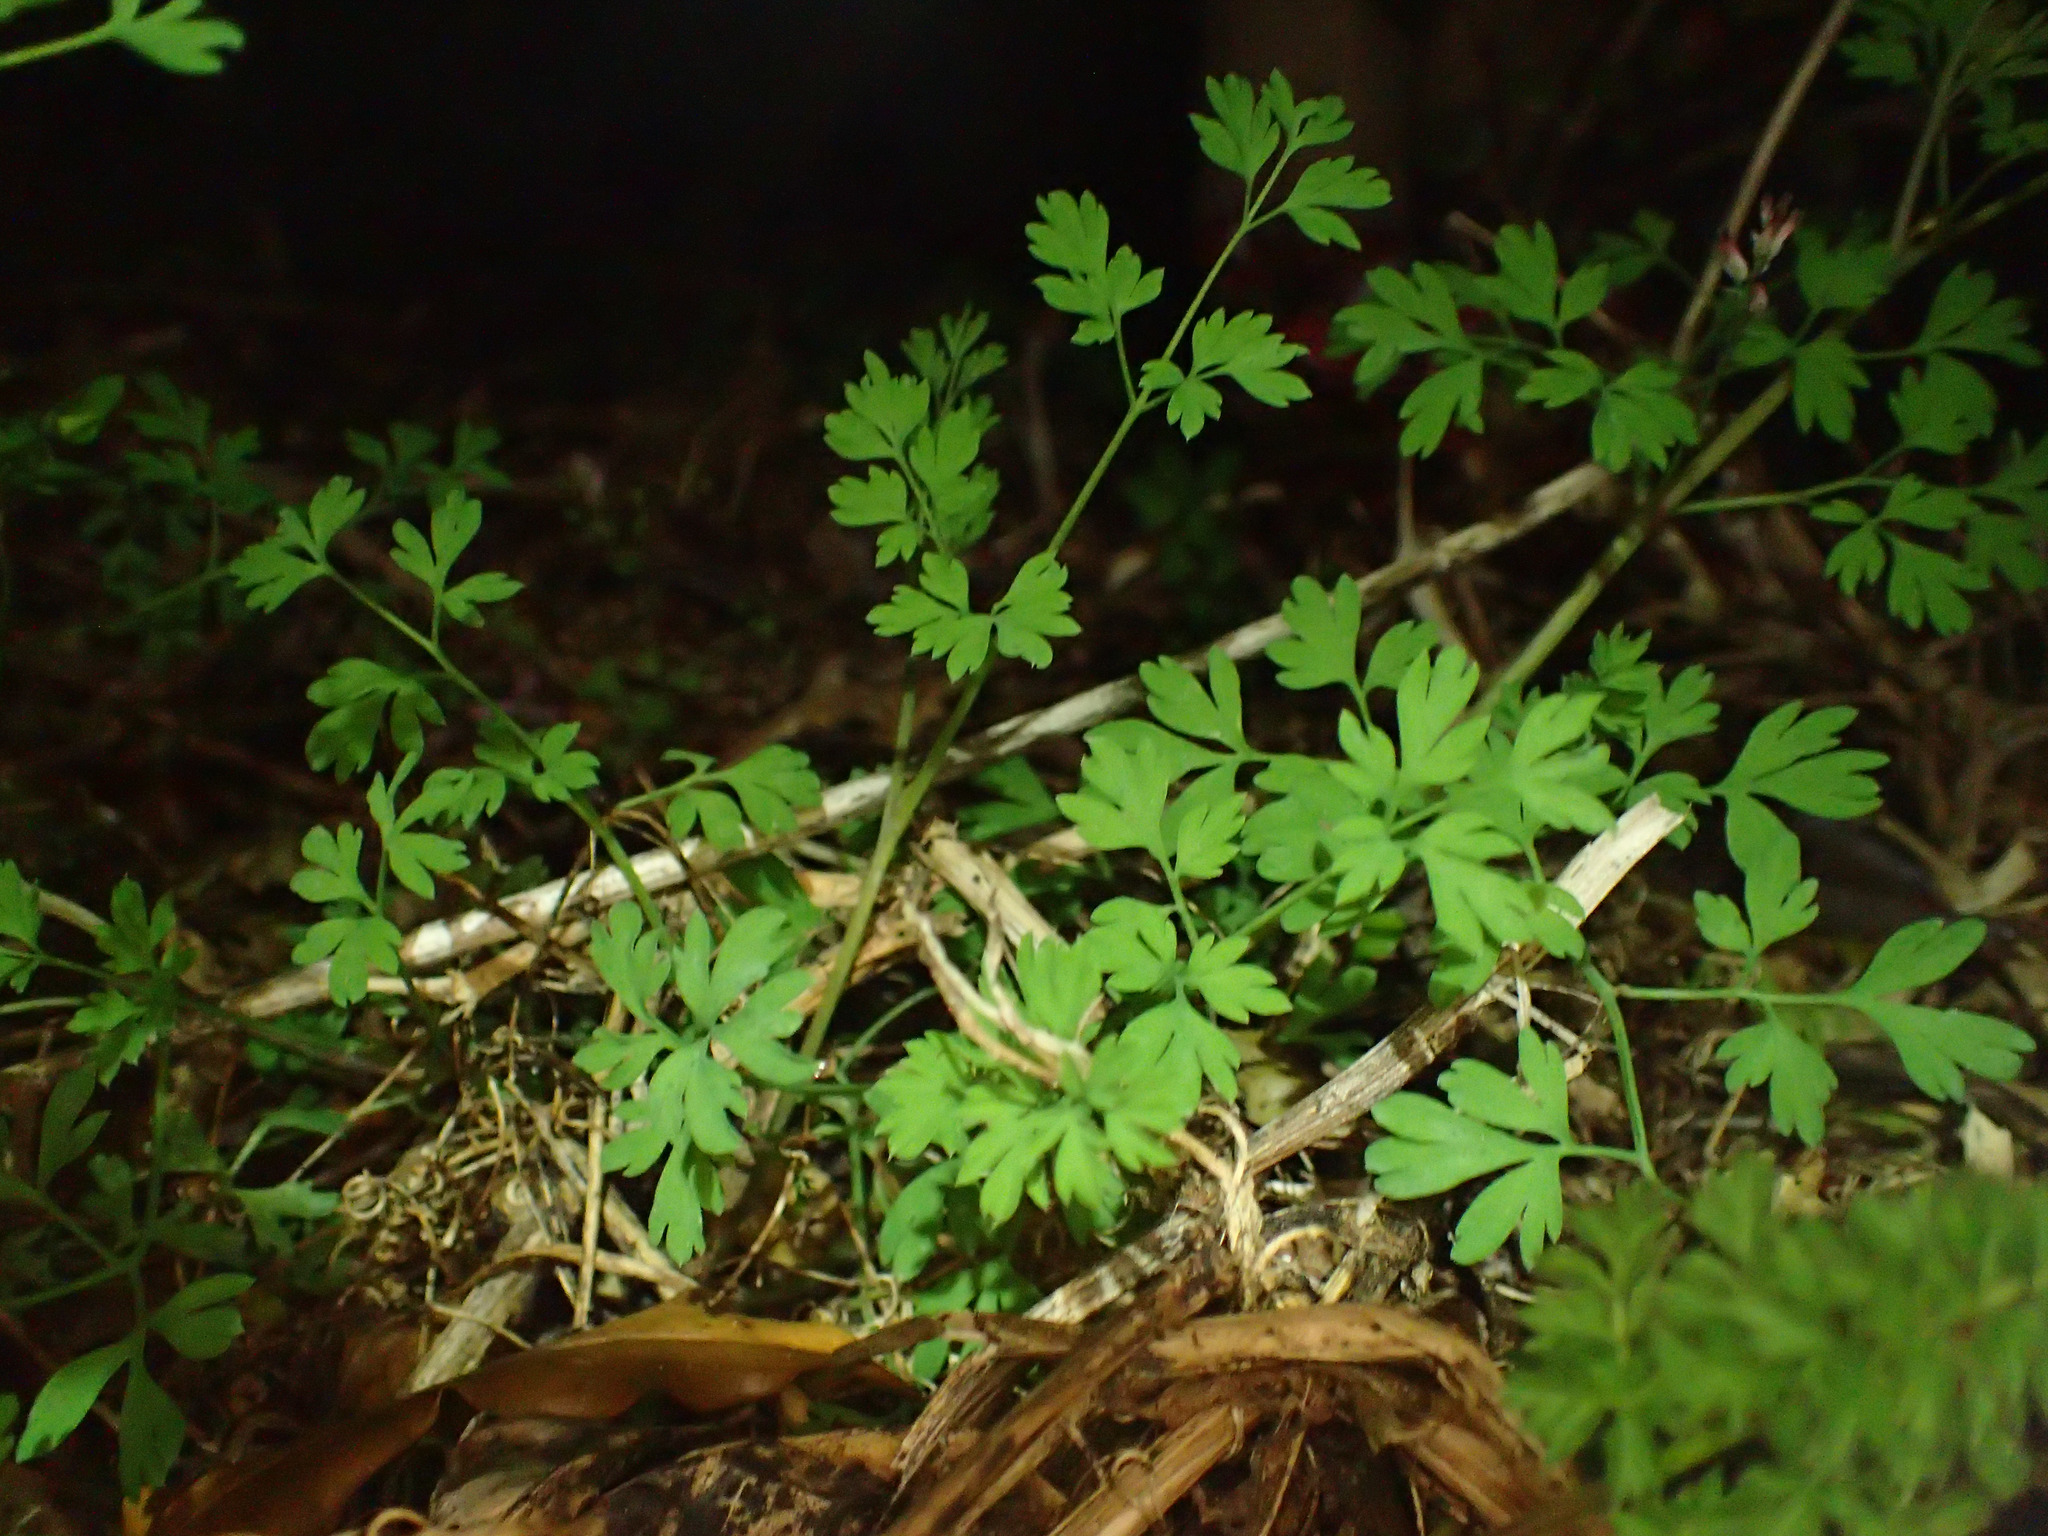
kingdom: Plantae
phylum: Tracheophyta
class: Magnoliopsida
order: Ranunculales
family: Papaveraceae
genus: Fumaria
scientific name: Fumaria muralis
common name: Common ramping-fumitory
